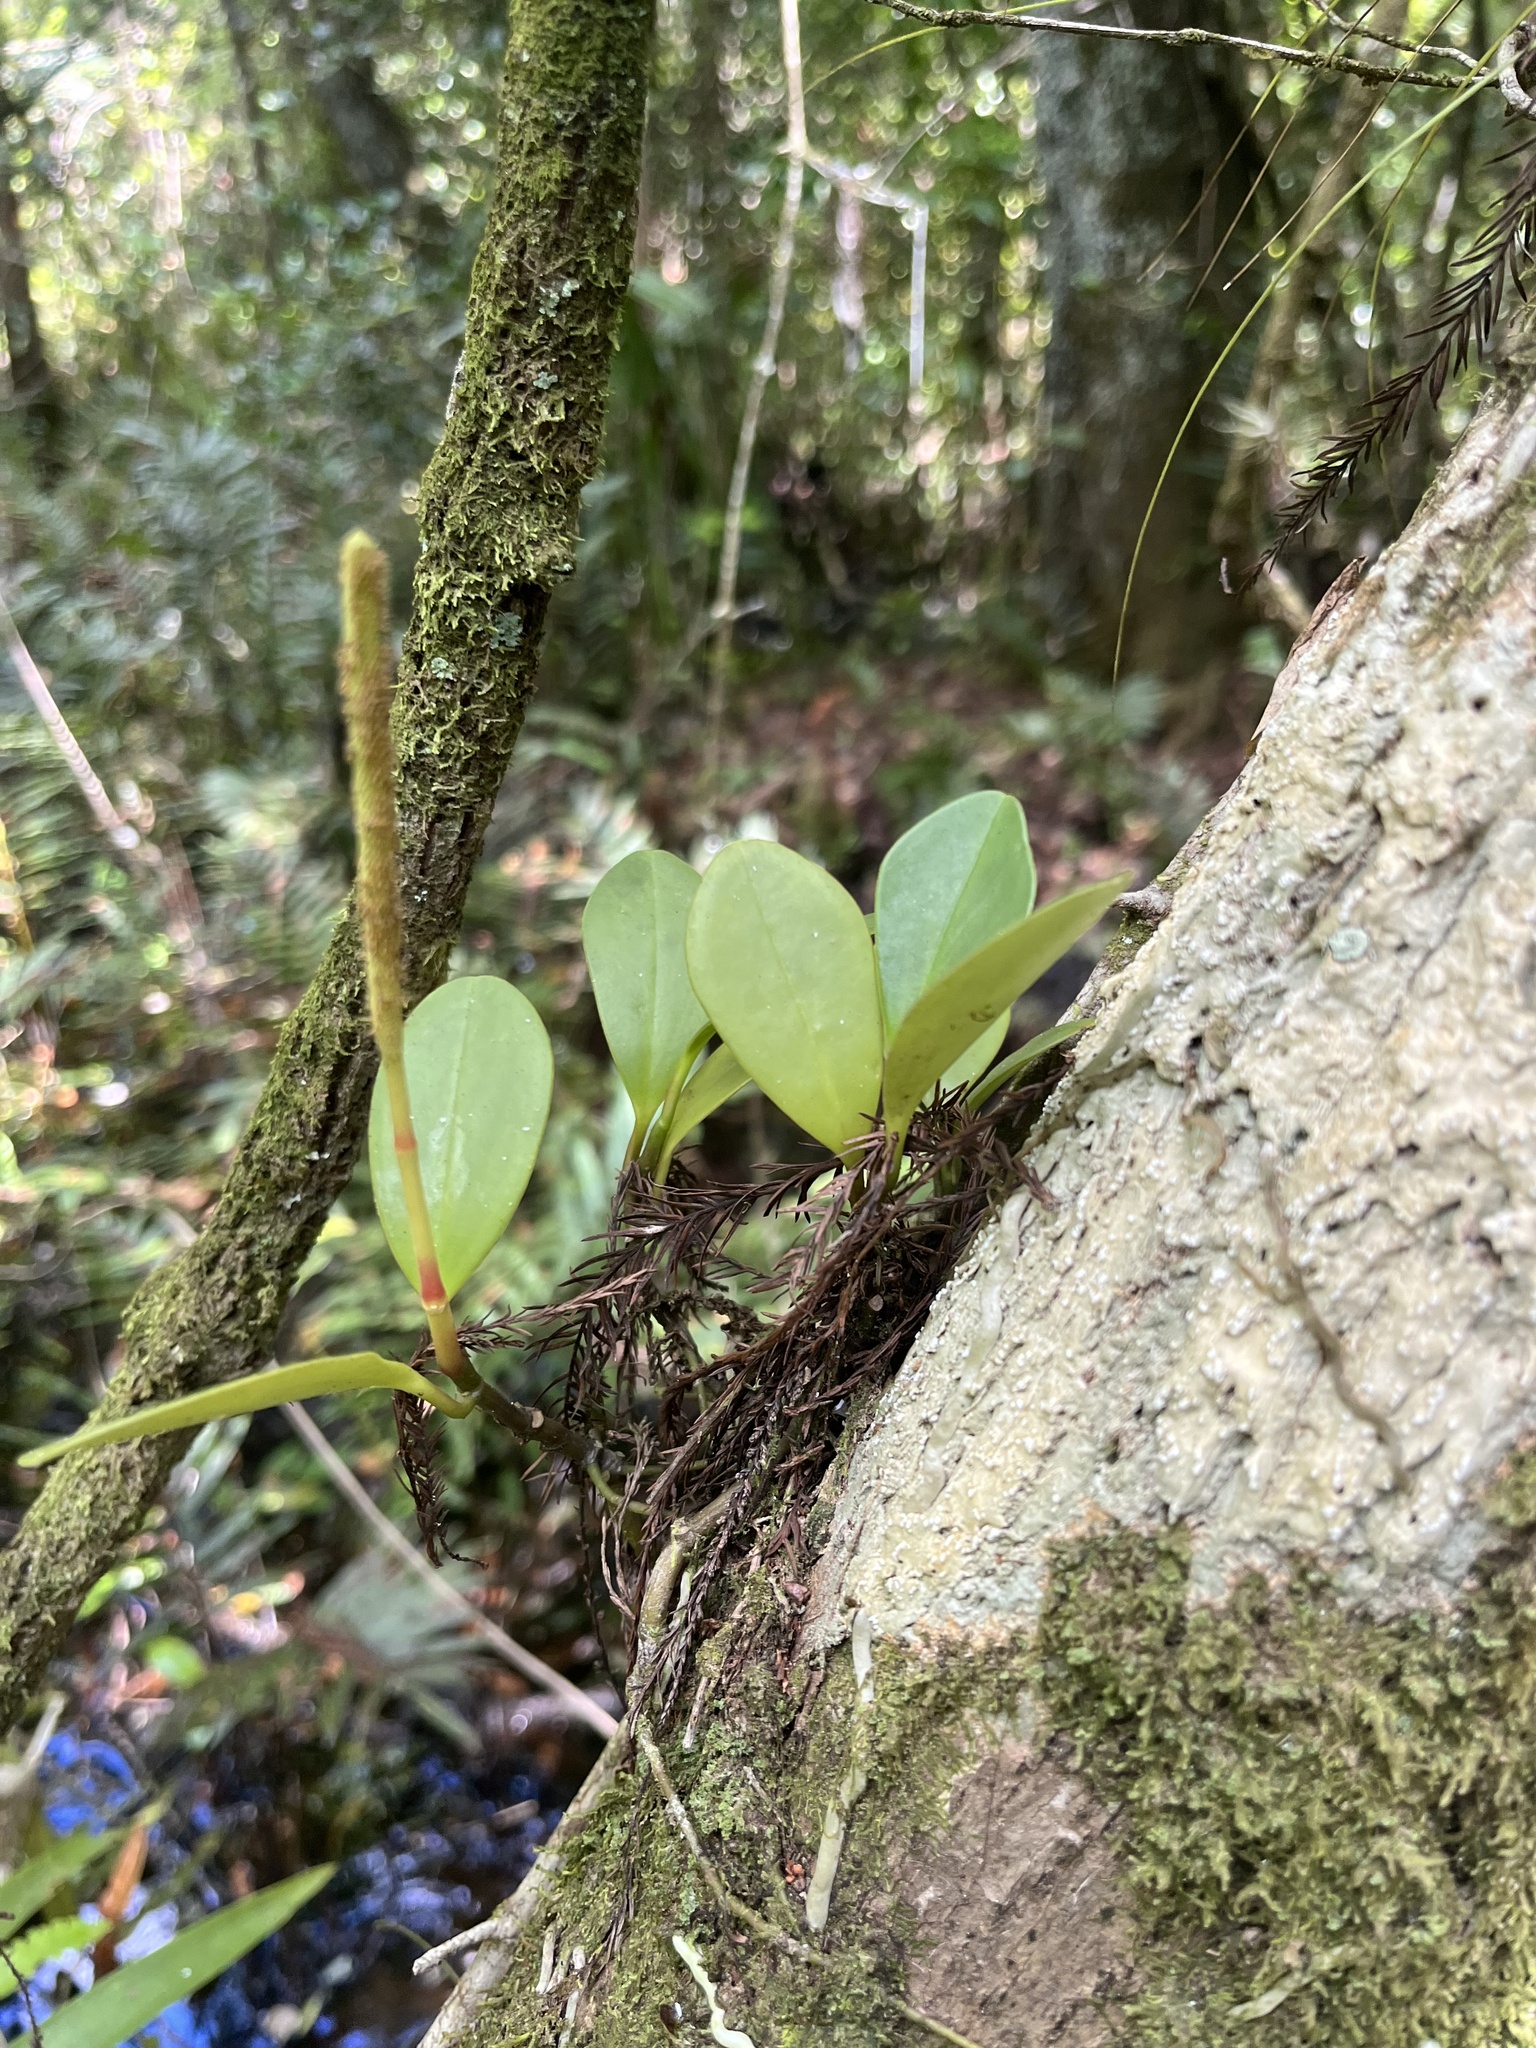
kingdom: Plantae
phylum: Tracheophyta
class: Magnoliopsida
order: Piperales
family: Piperaceae
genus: Peperomia
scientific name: Peperomia obtusifolia
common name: Baby rubberplant
